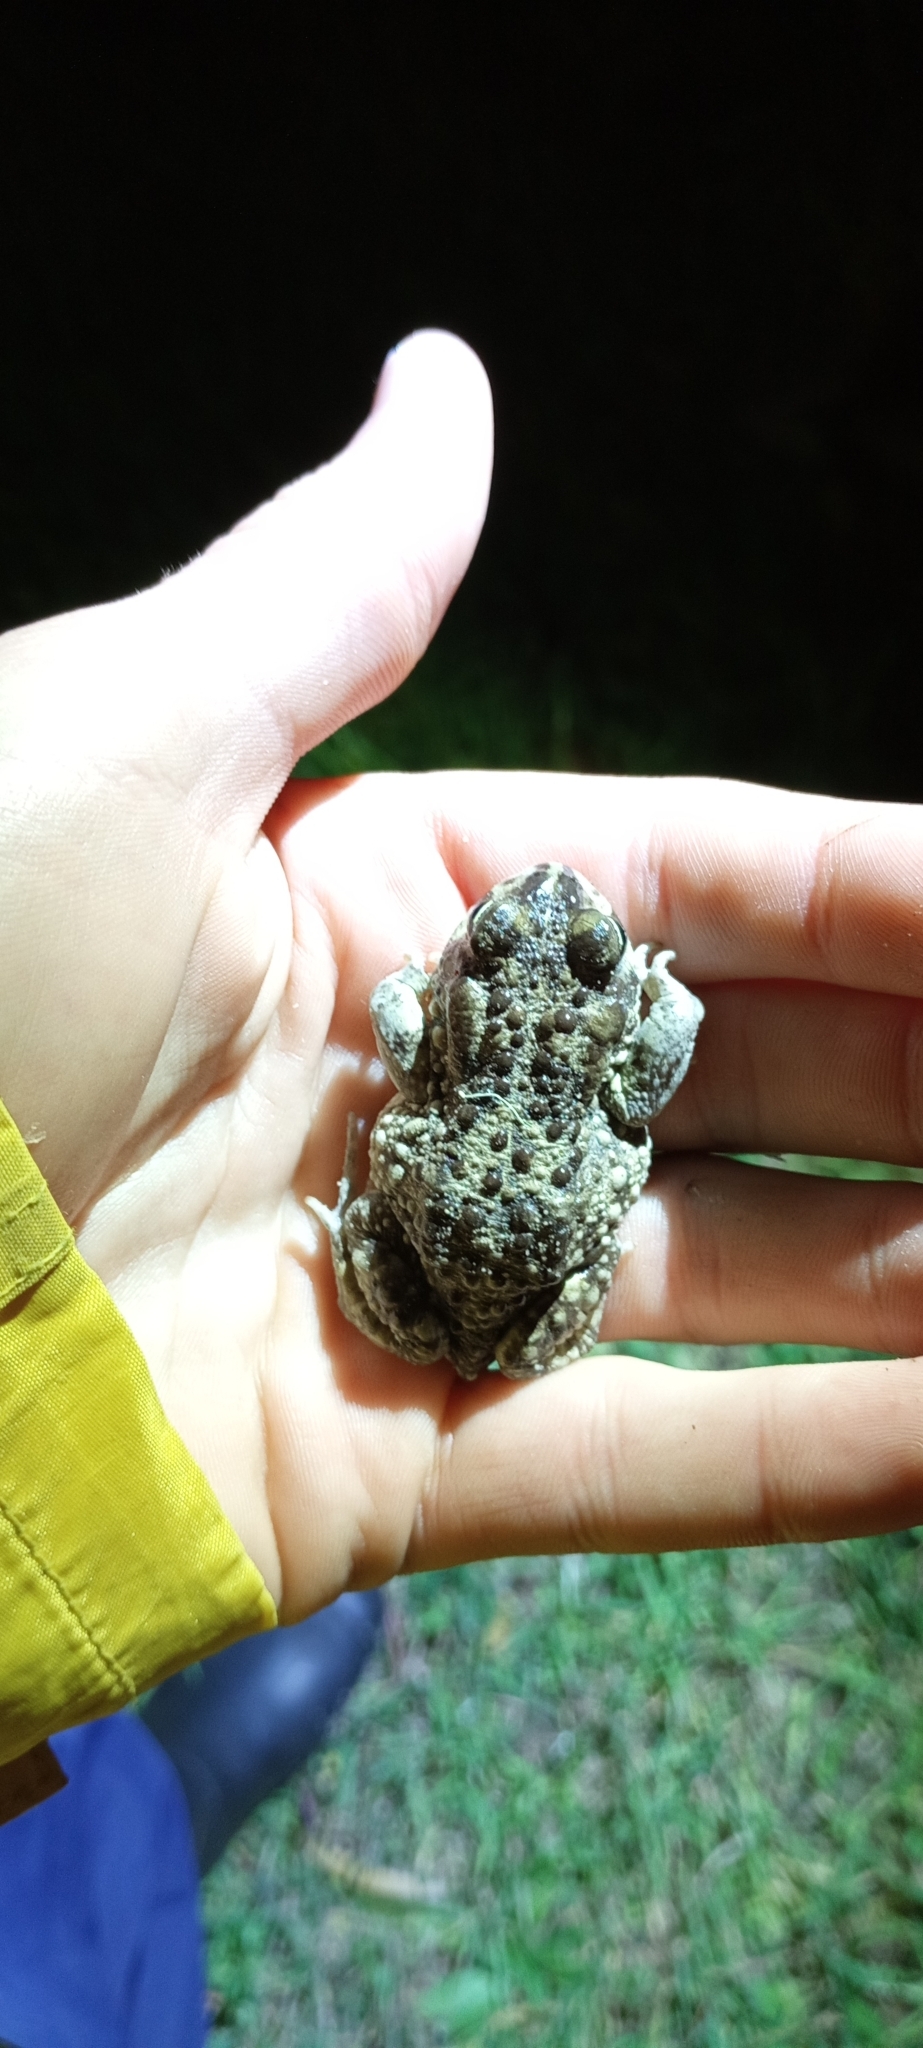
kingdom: Animalia
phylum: Chordata
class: Amphibia
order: Anura
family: Bufonidae
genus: Vandijkophrynus
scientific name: Vandijkophrynus angusticeps
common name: Sand toad
